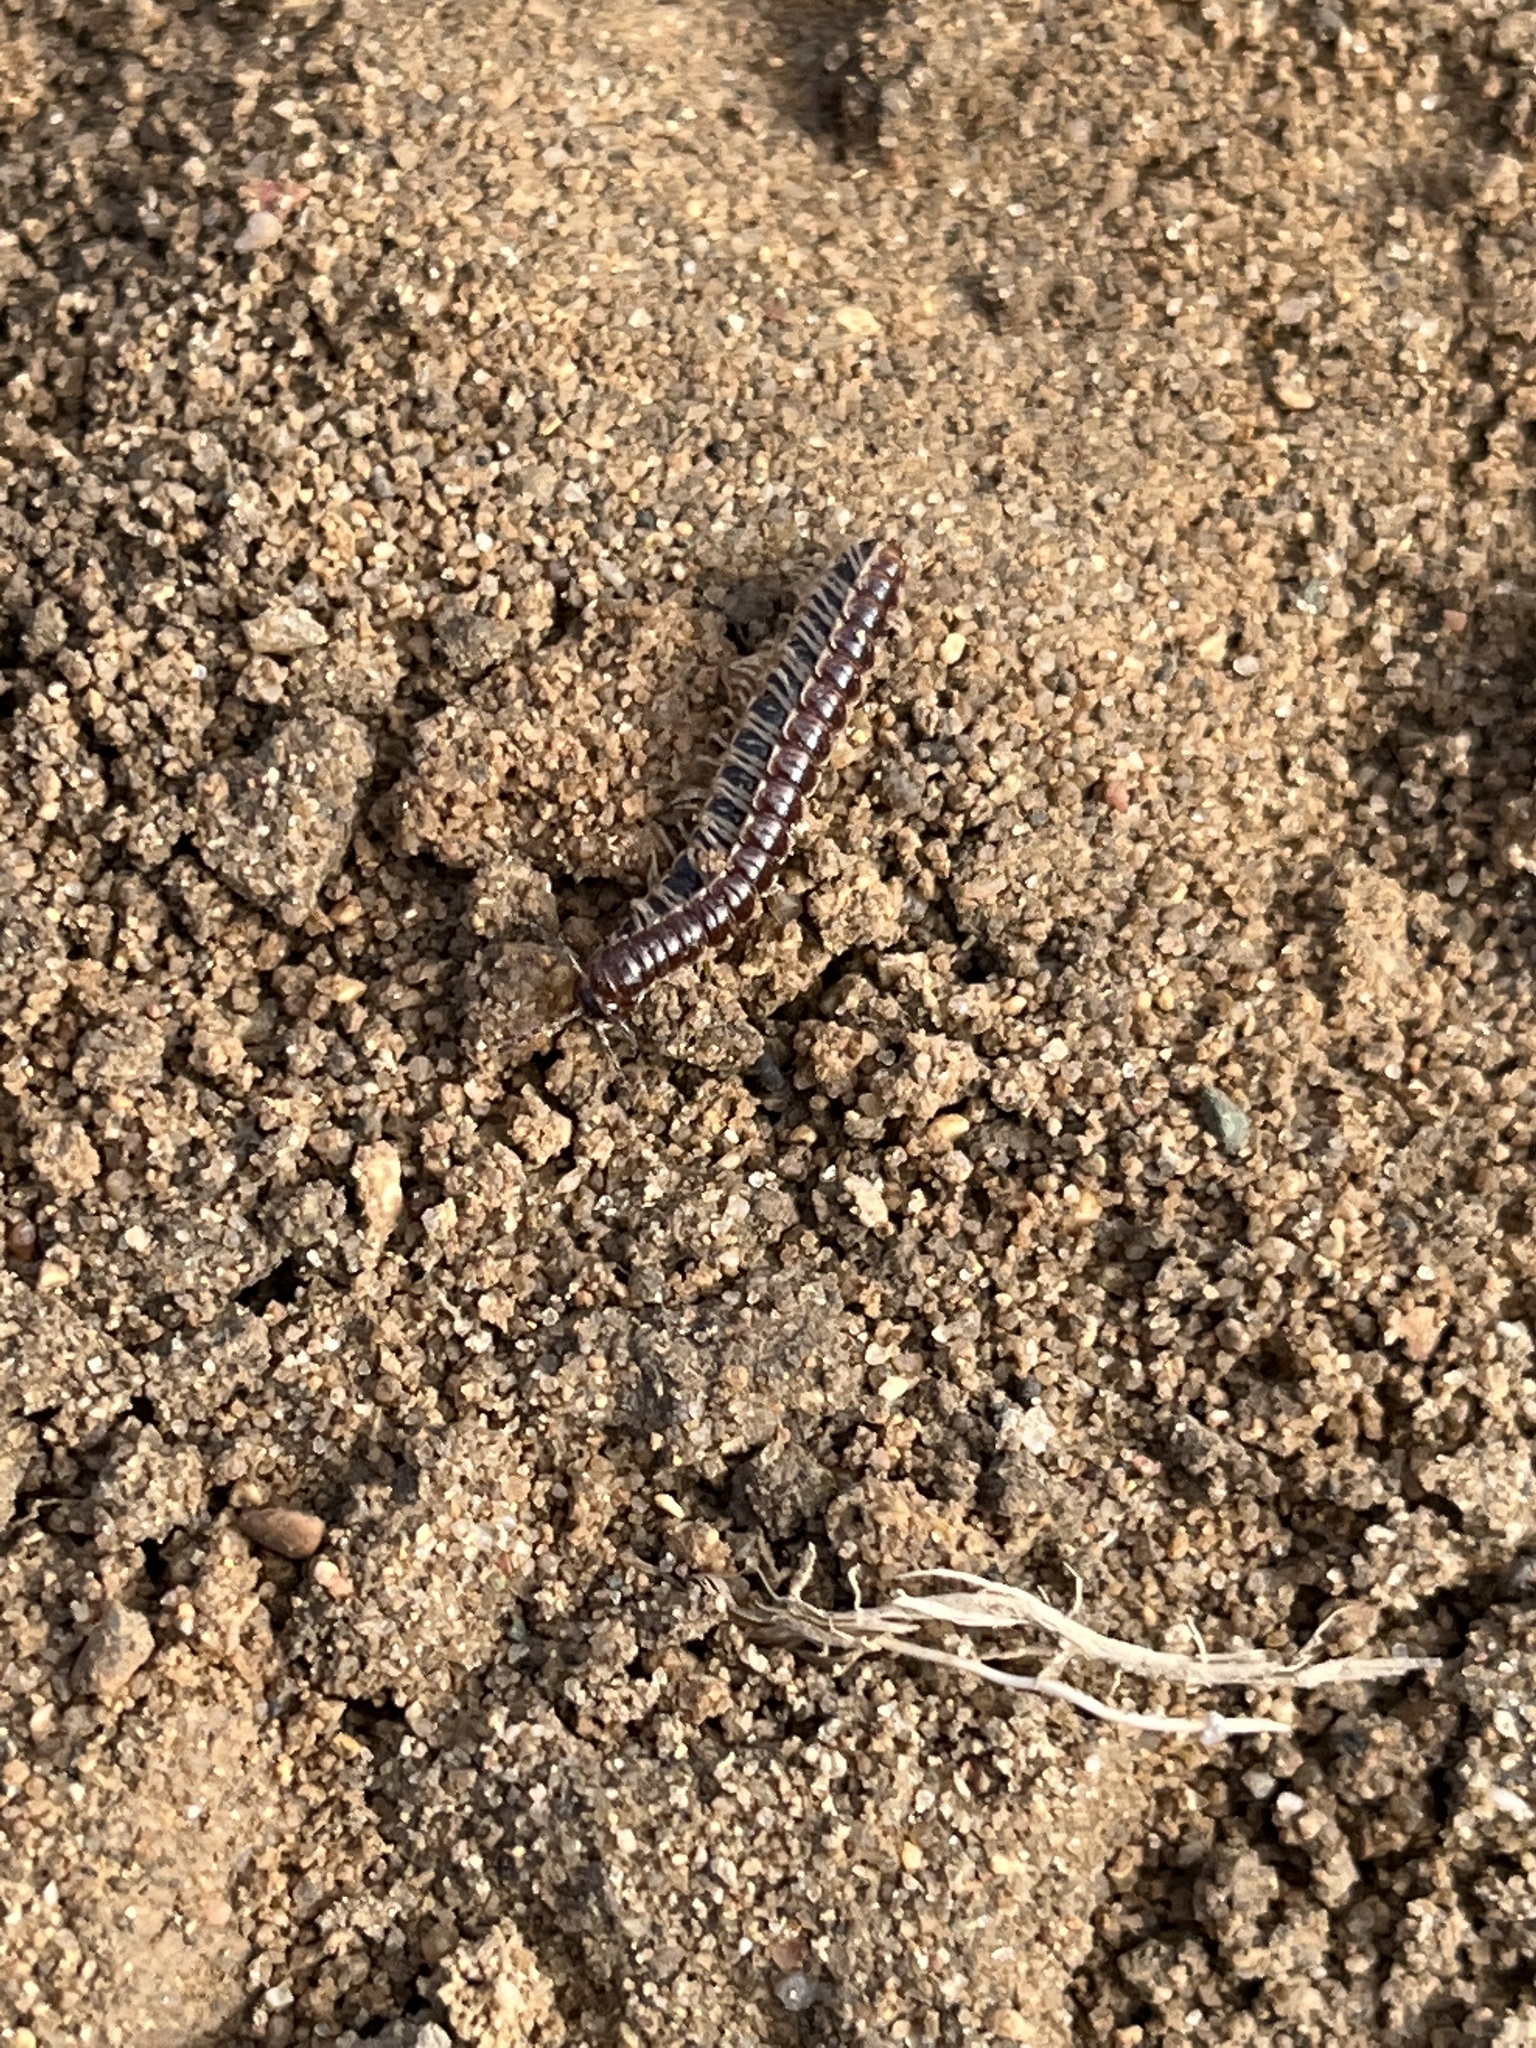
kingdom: Animalia
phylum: Arthropoda
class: Diplopoda
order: Polydesmida
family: Paradoxosomatidae
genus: Oxidus
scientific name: Oxidus gracilis
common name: Greenhouse millipede
